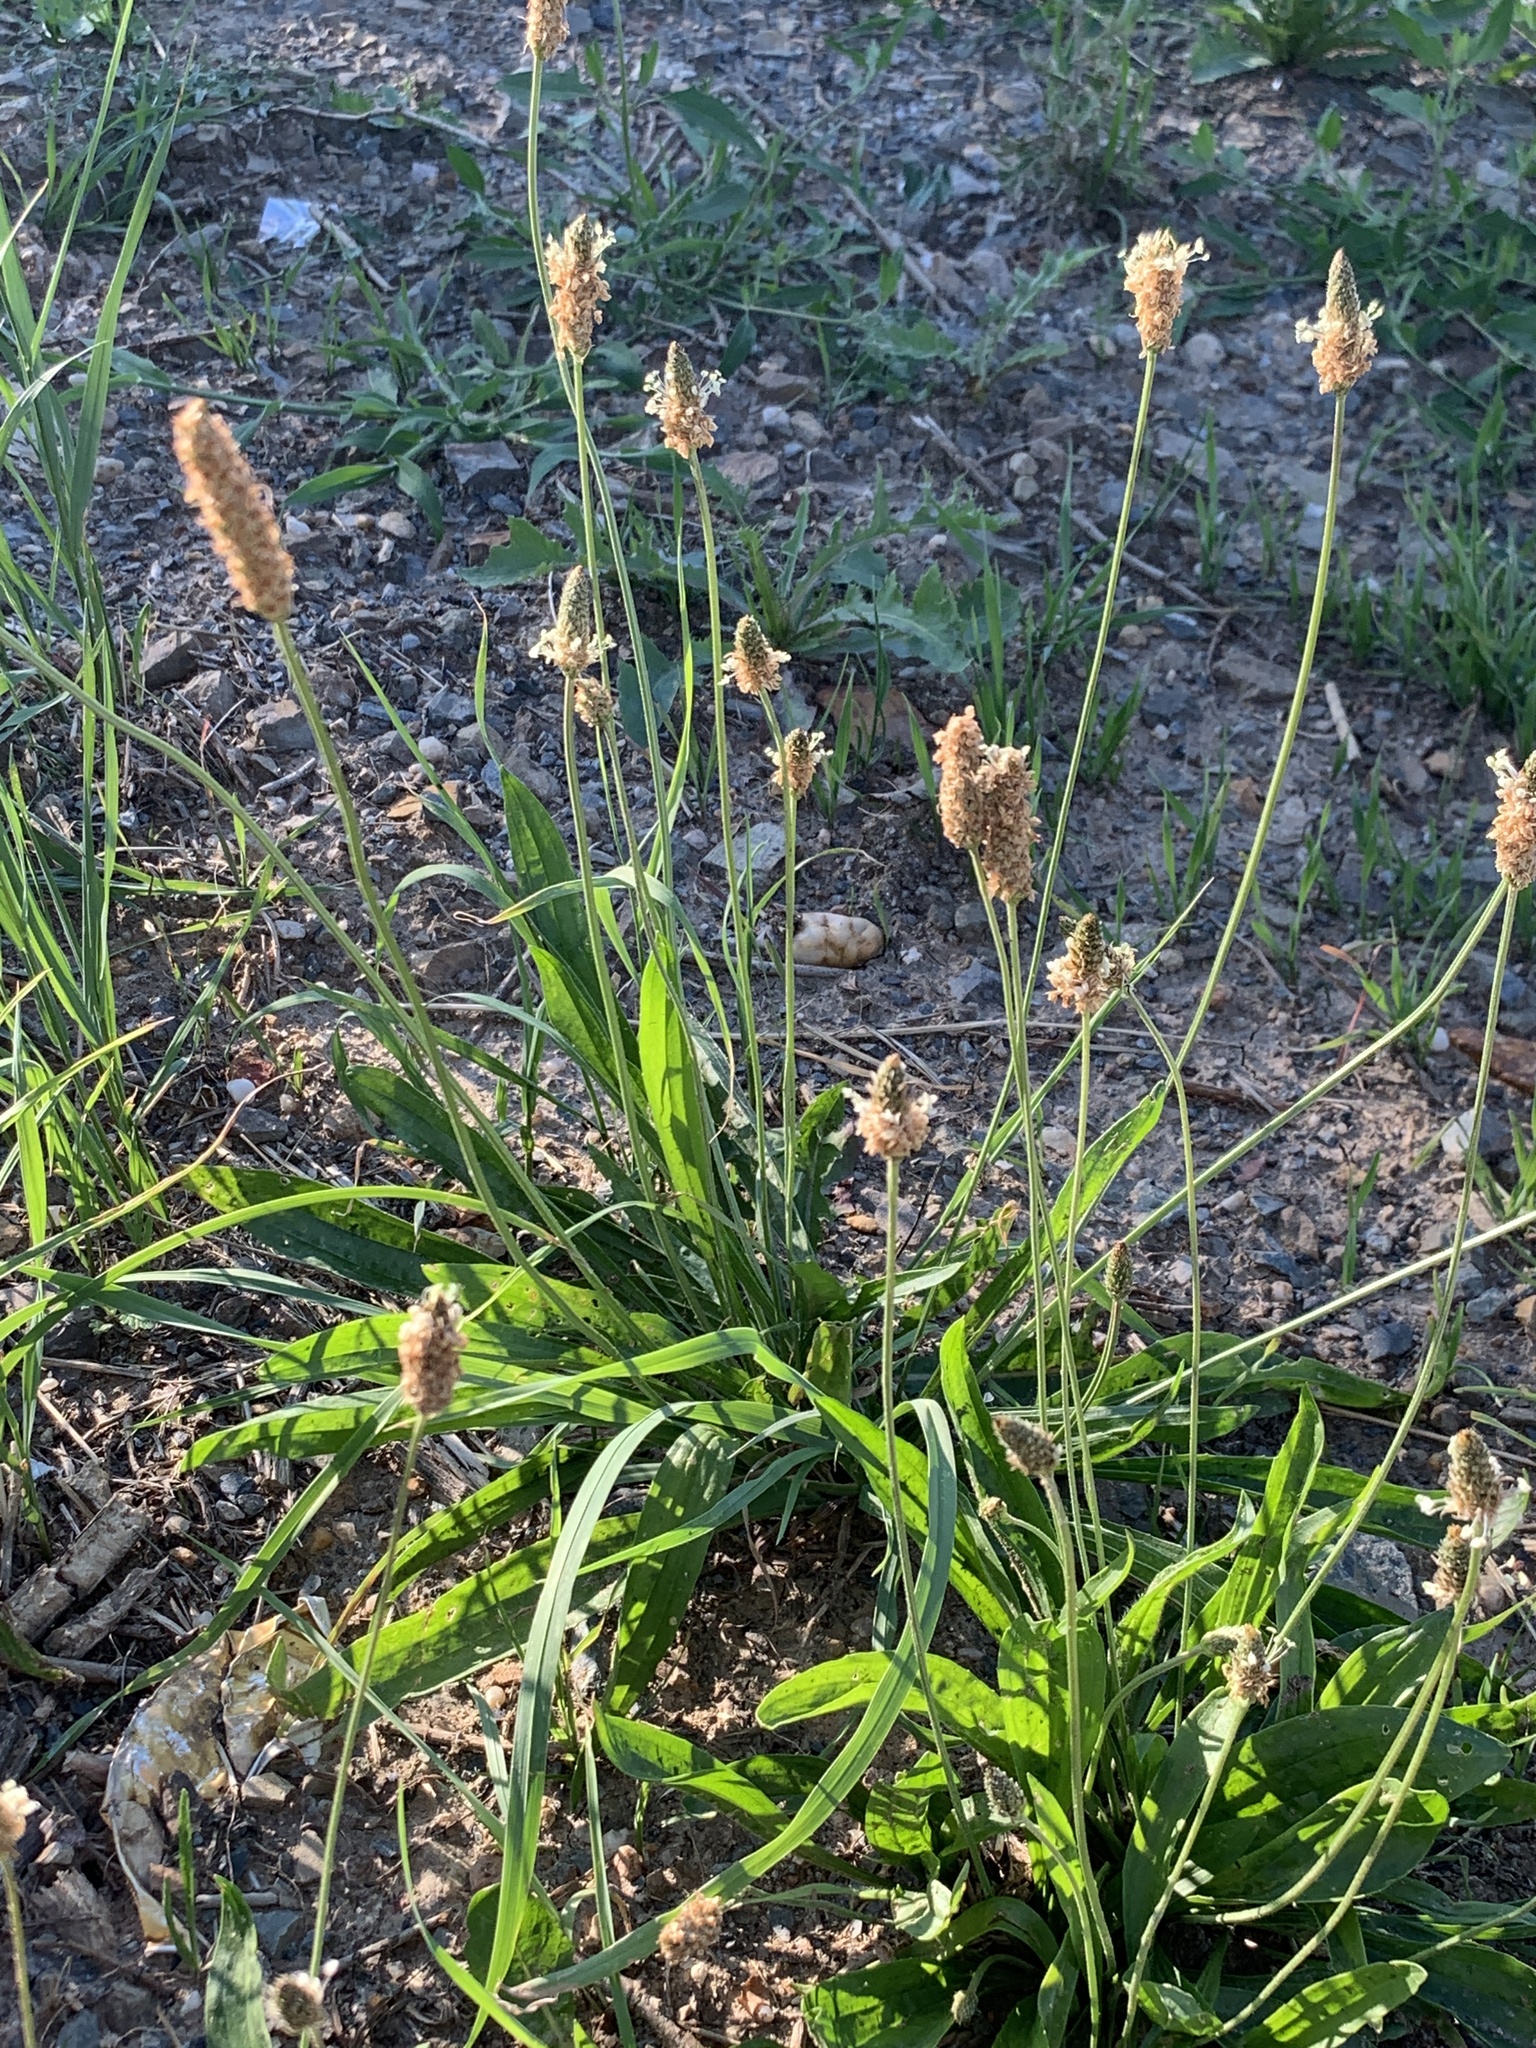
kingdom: Plantae
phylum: Tracheophyta
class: Magnoliopsida
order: Lamiales
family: Plantaginaceae
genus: Plantago
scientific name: Plantago lanceolata
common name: Ribwort plantain
